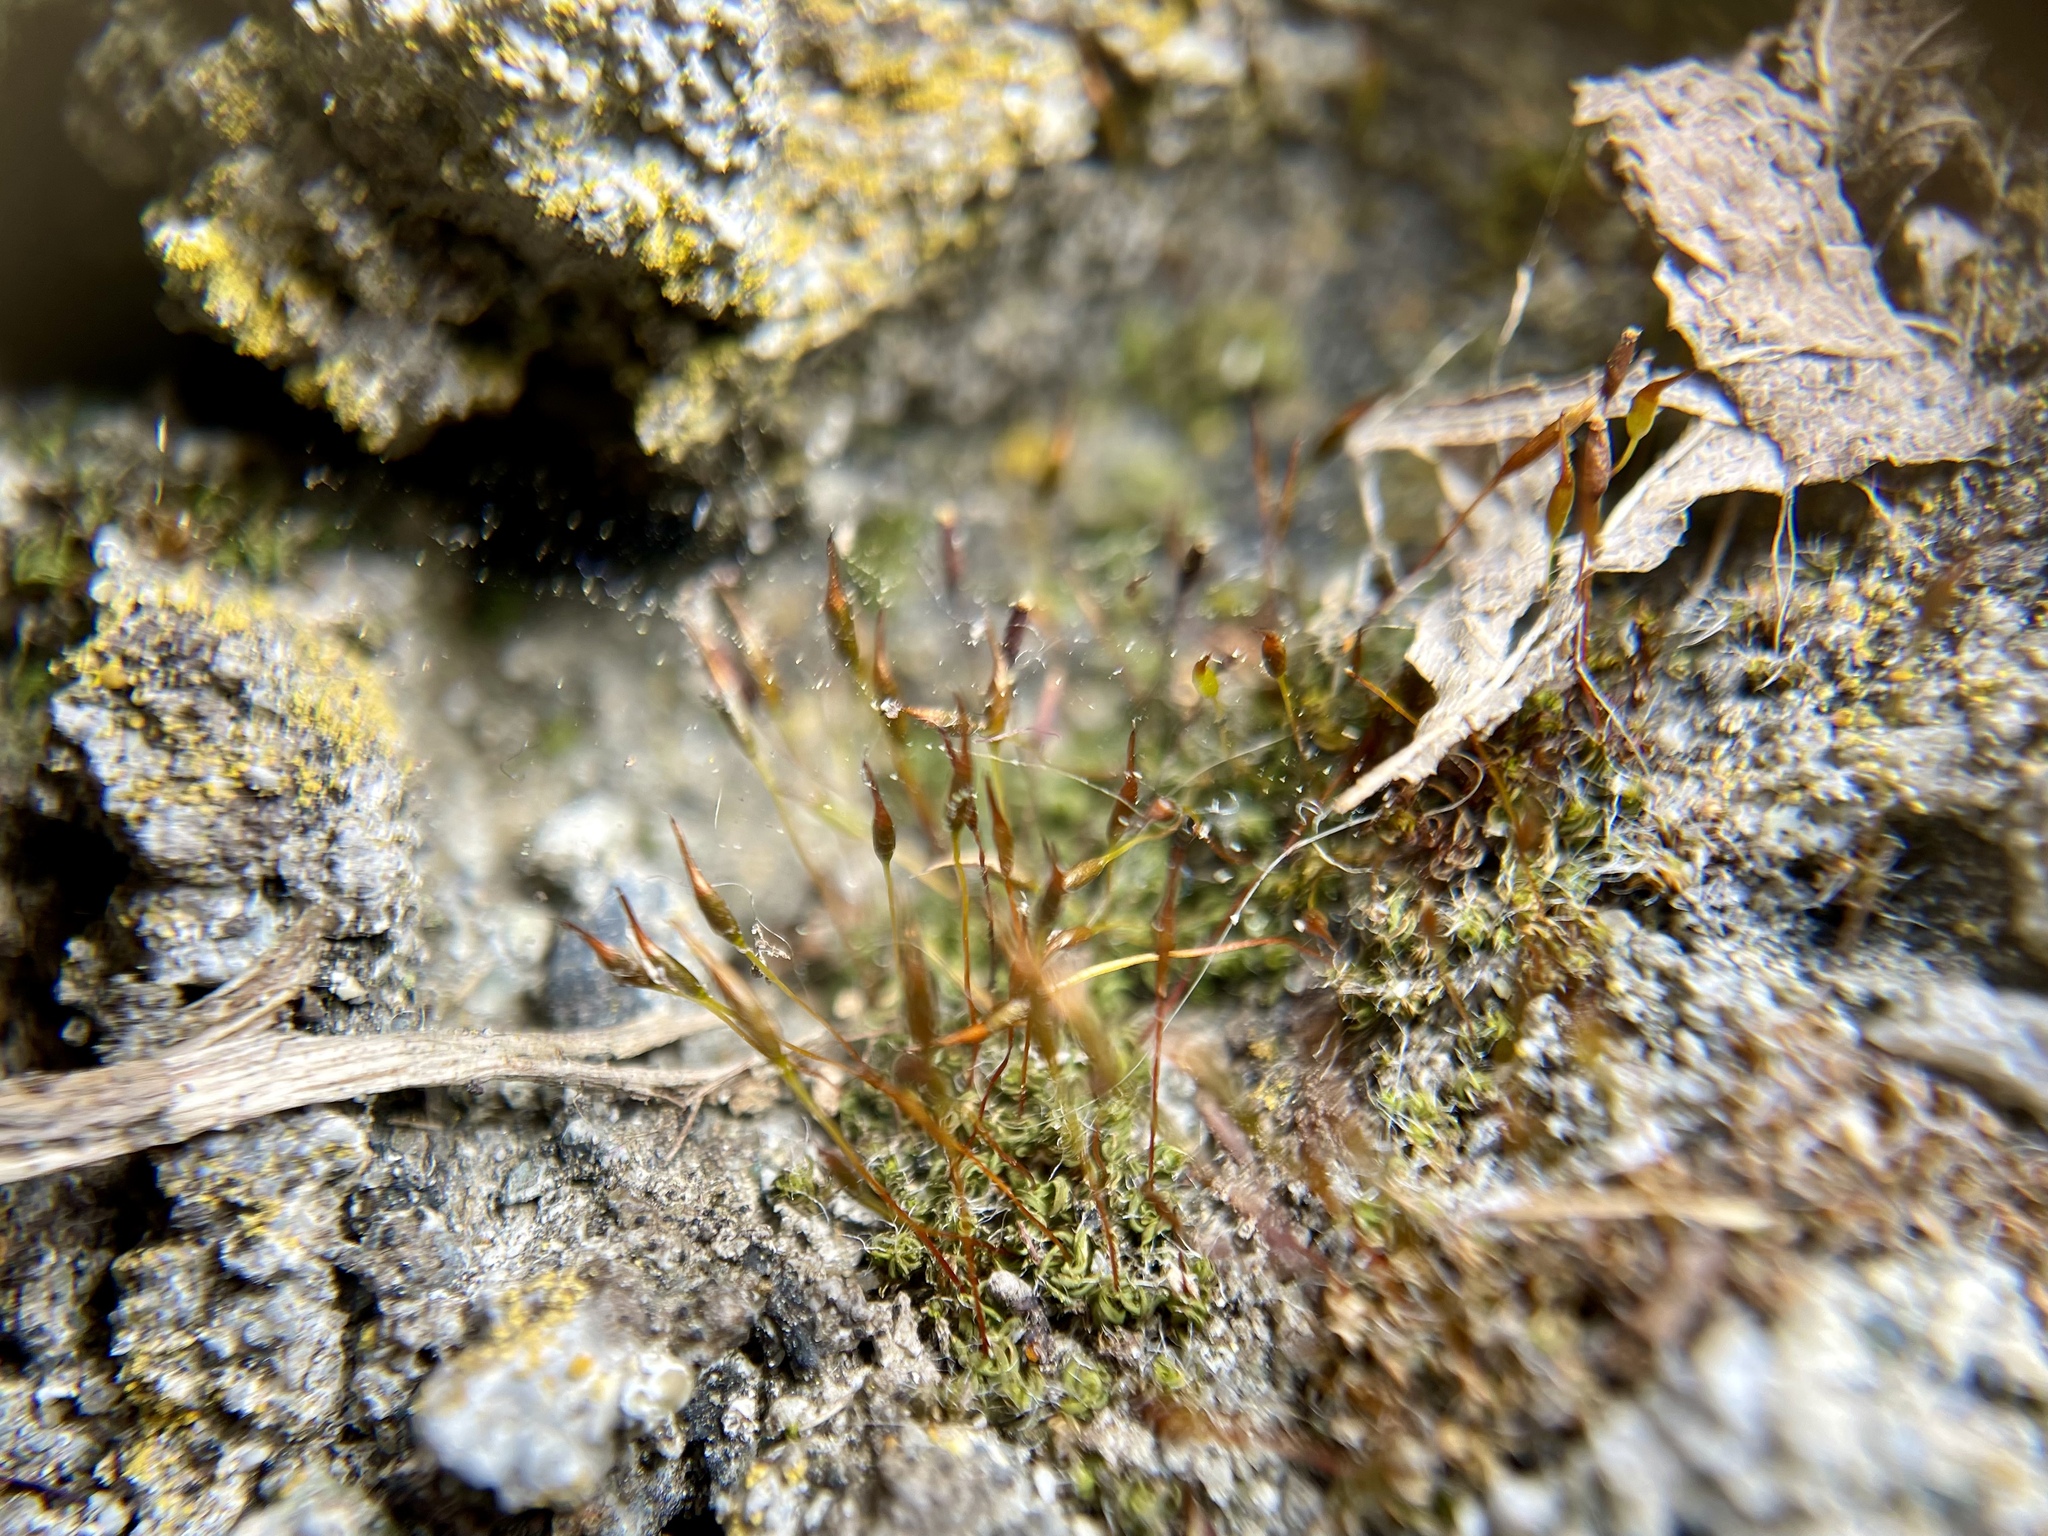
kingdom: Plantae
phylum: Bryophyta
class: Bryopsida
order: Pottiales
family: Pottiaceae
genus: Tortula
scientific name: Tortula muralis
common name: Wall screw-moss
